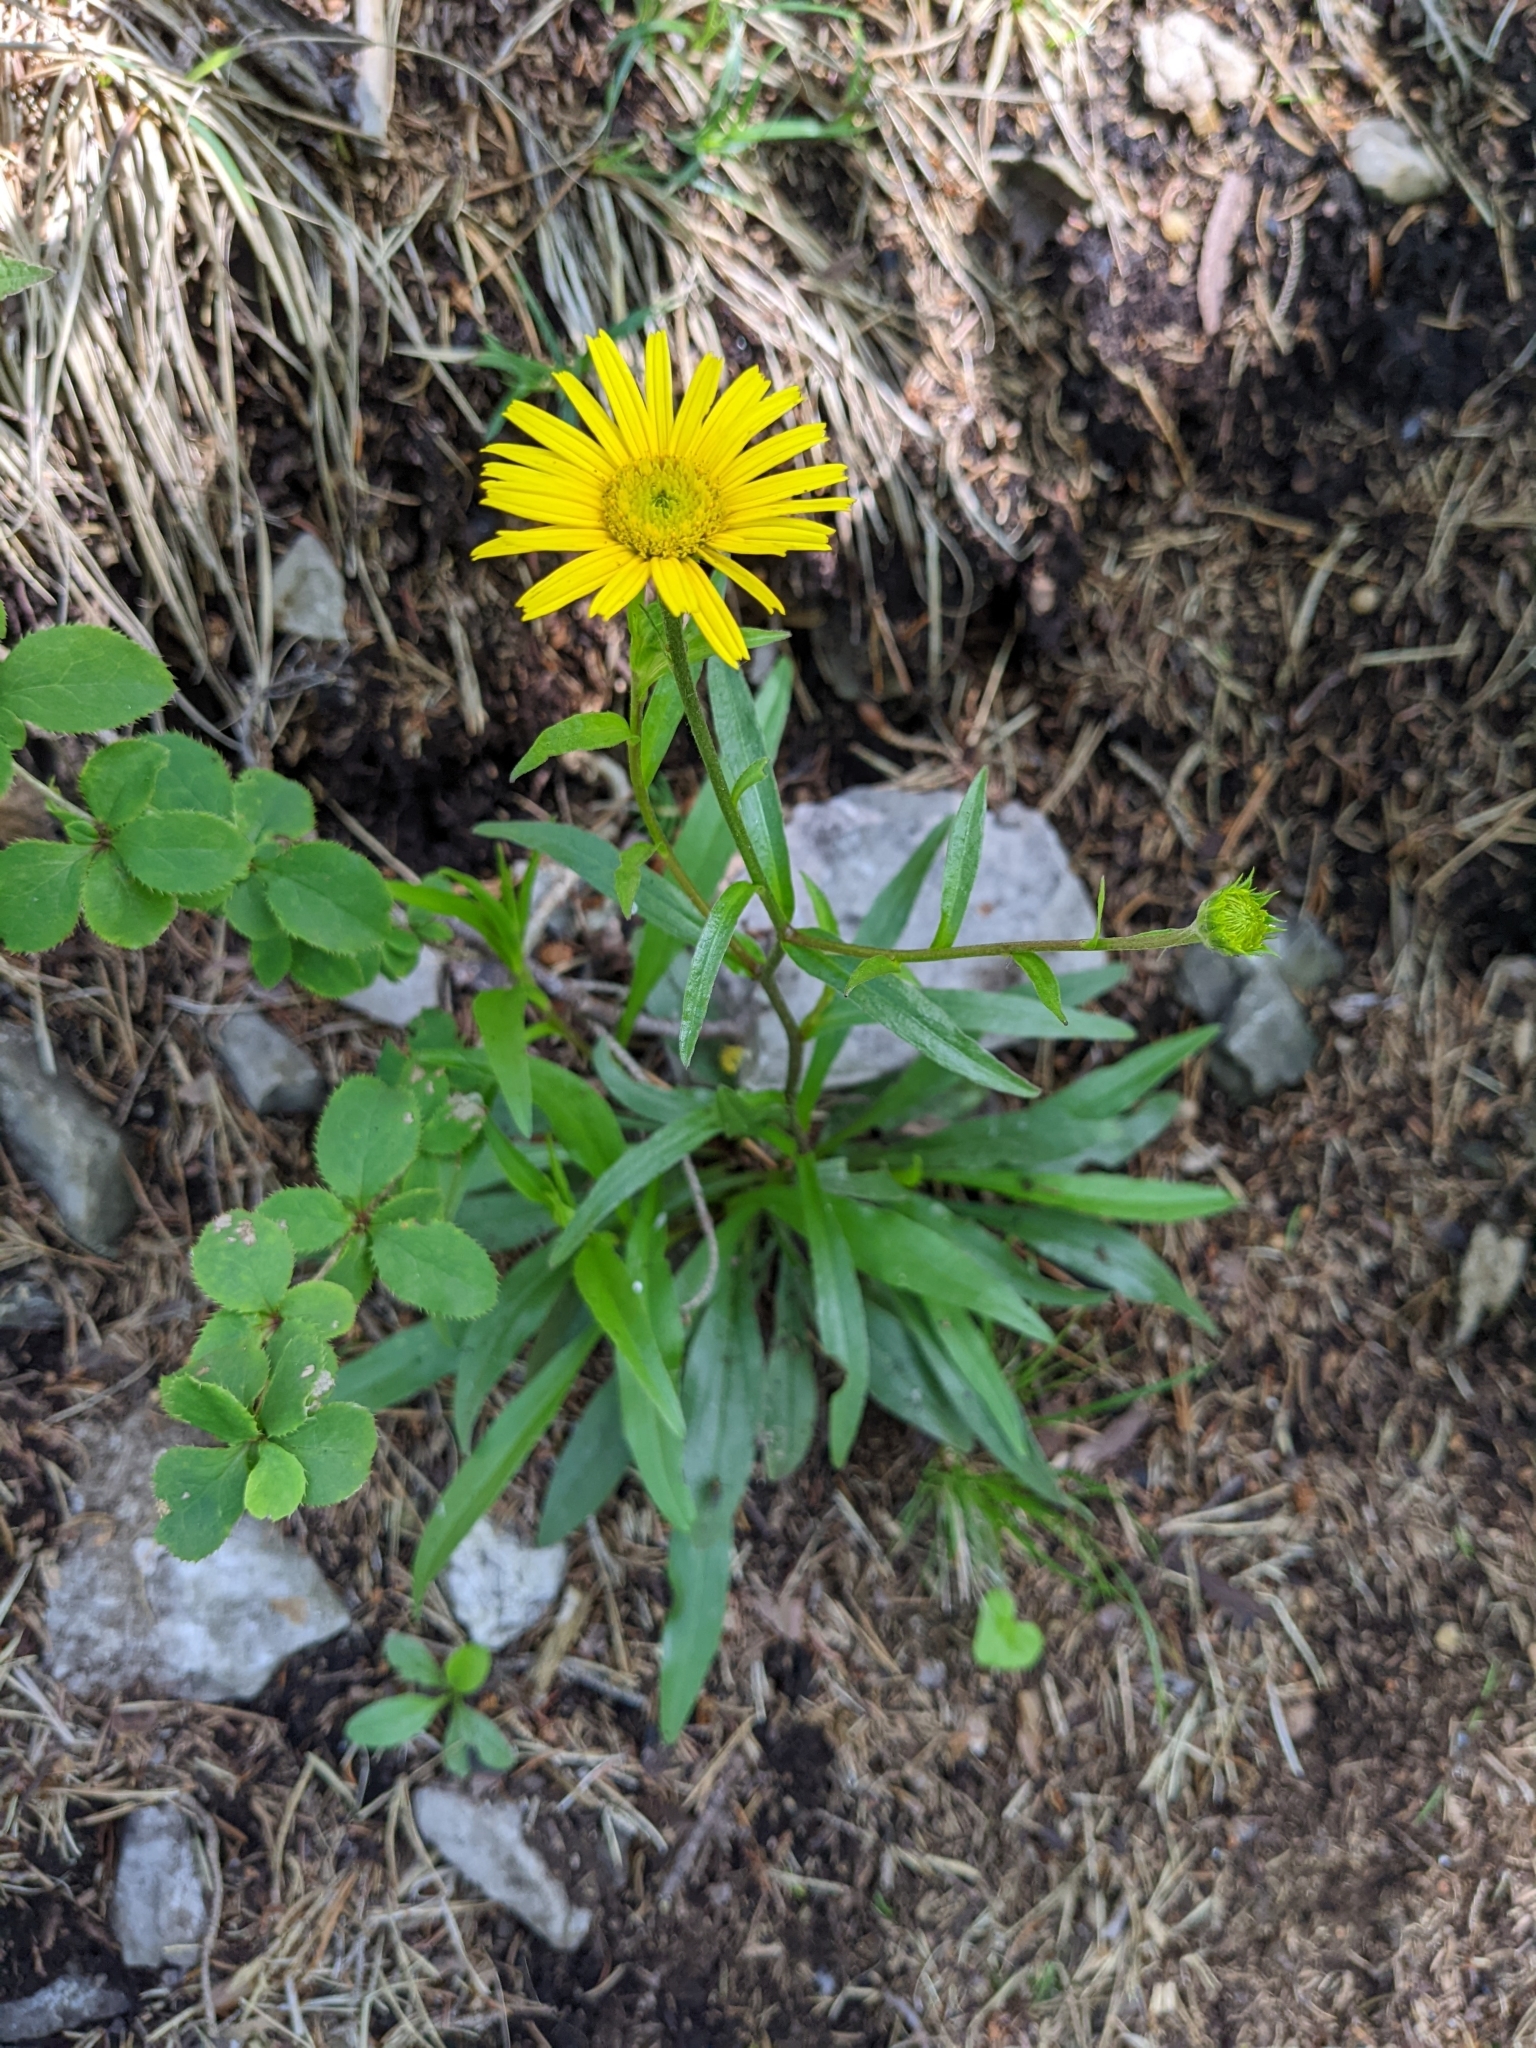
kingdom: Plantae
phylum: Tracheophyta
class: Magnoliopsida
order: Asterales
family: Asteraceae
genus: Buphthalmum
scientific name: Buphthalmum salicifolium
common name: Willow-leaved yellow-oxeye
